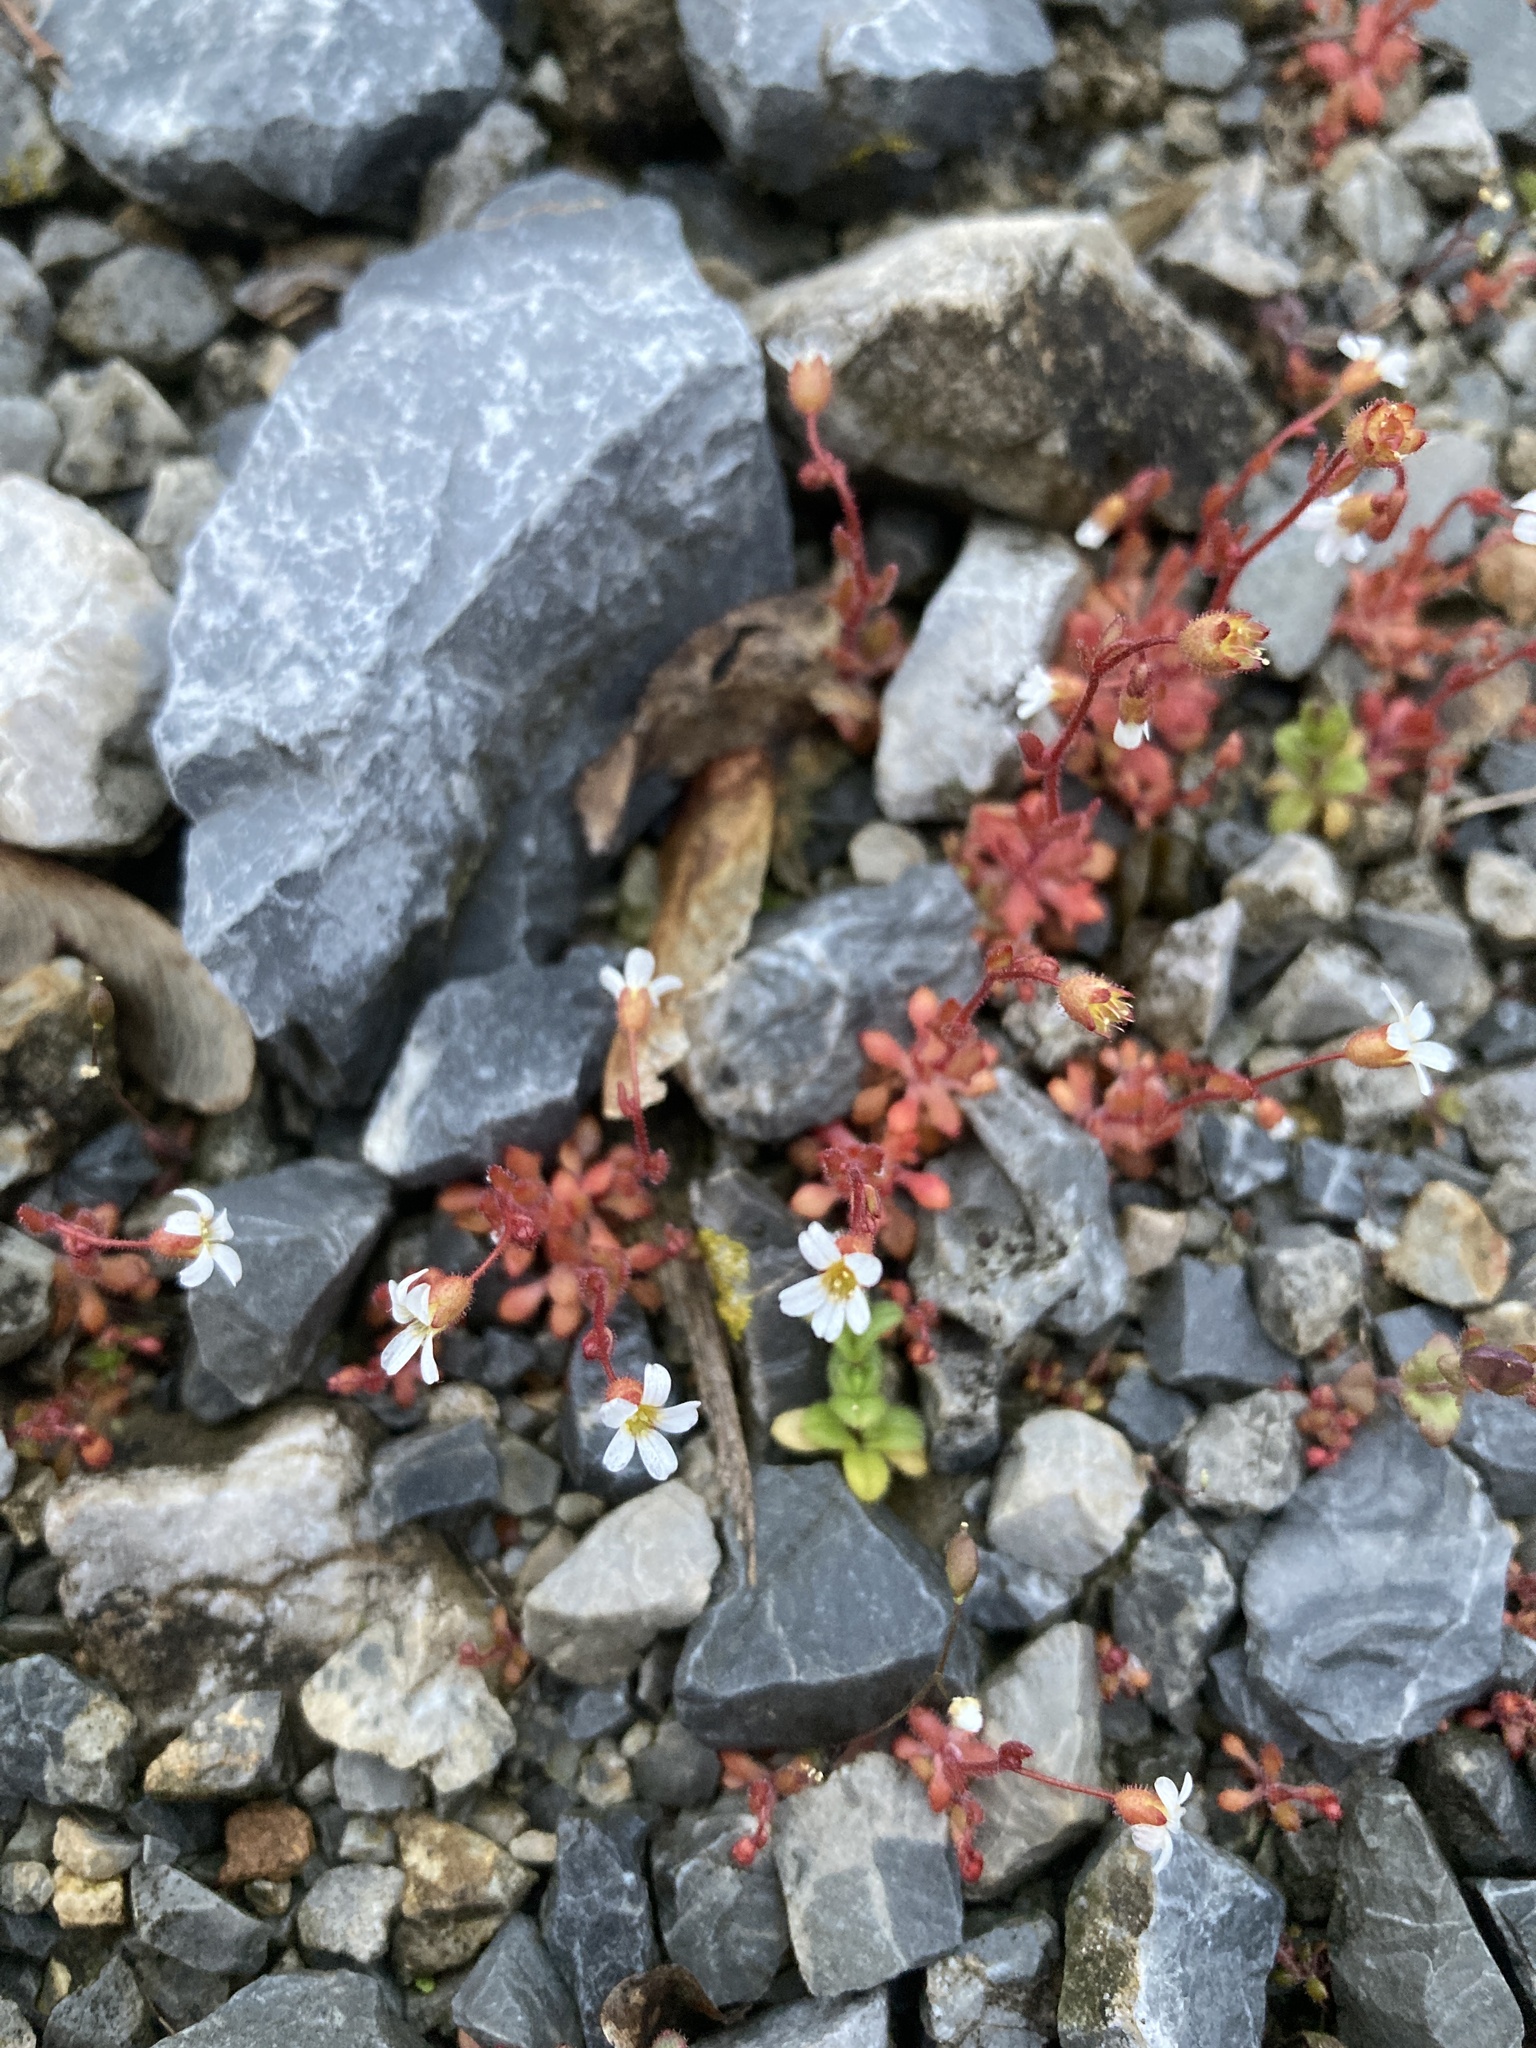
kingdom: Plantae
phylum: Tracheophyta
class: Magnoliopsida
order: Saxifragales
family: Saxifragaceae
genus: Saxifraga
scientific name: Saxifraga tridactylites
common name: Rue-leaved saxifrage
